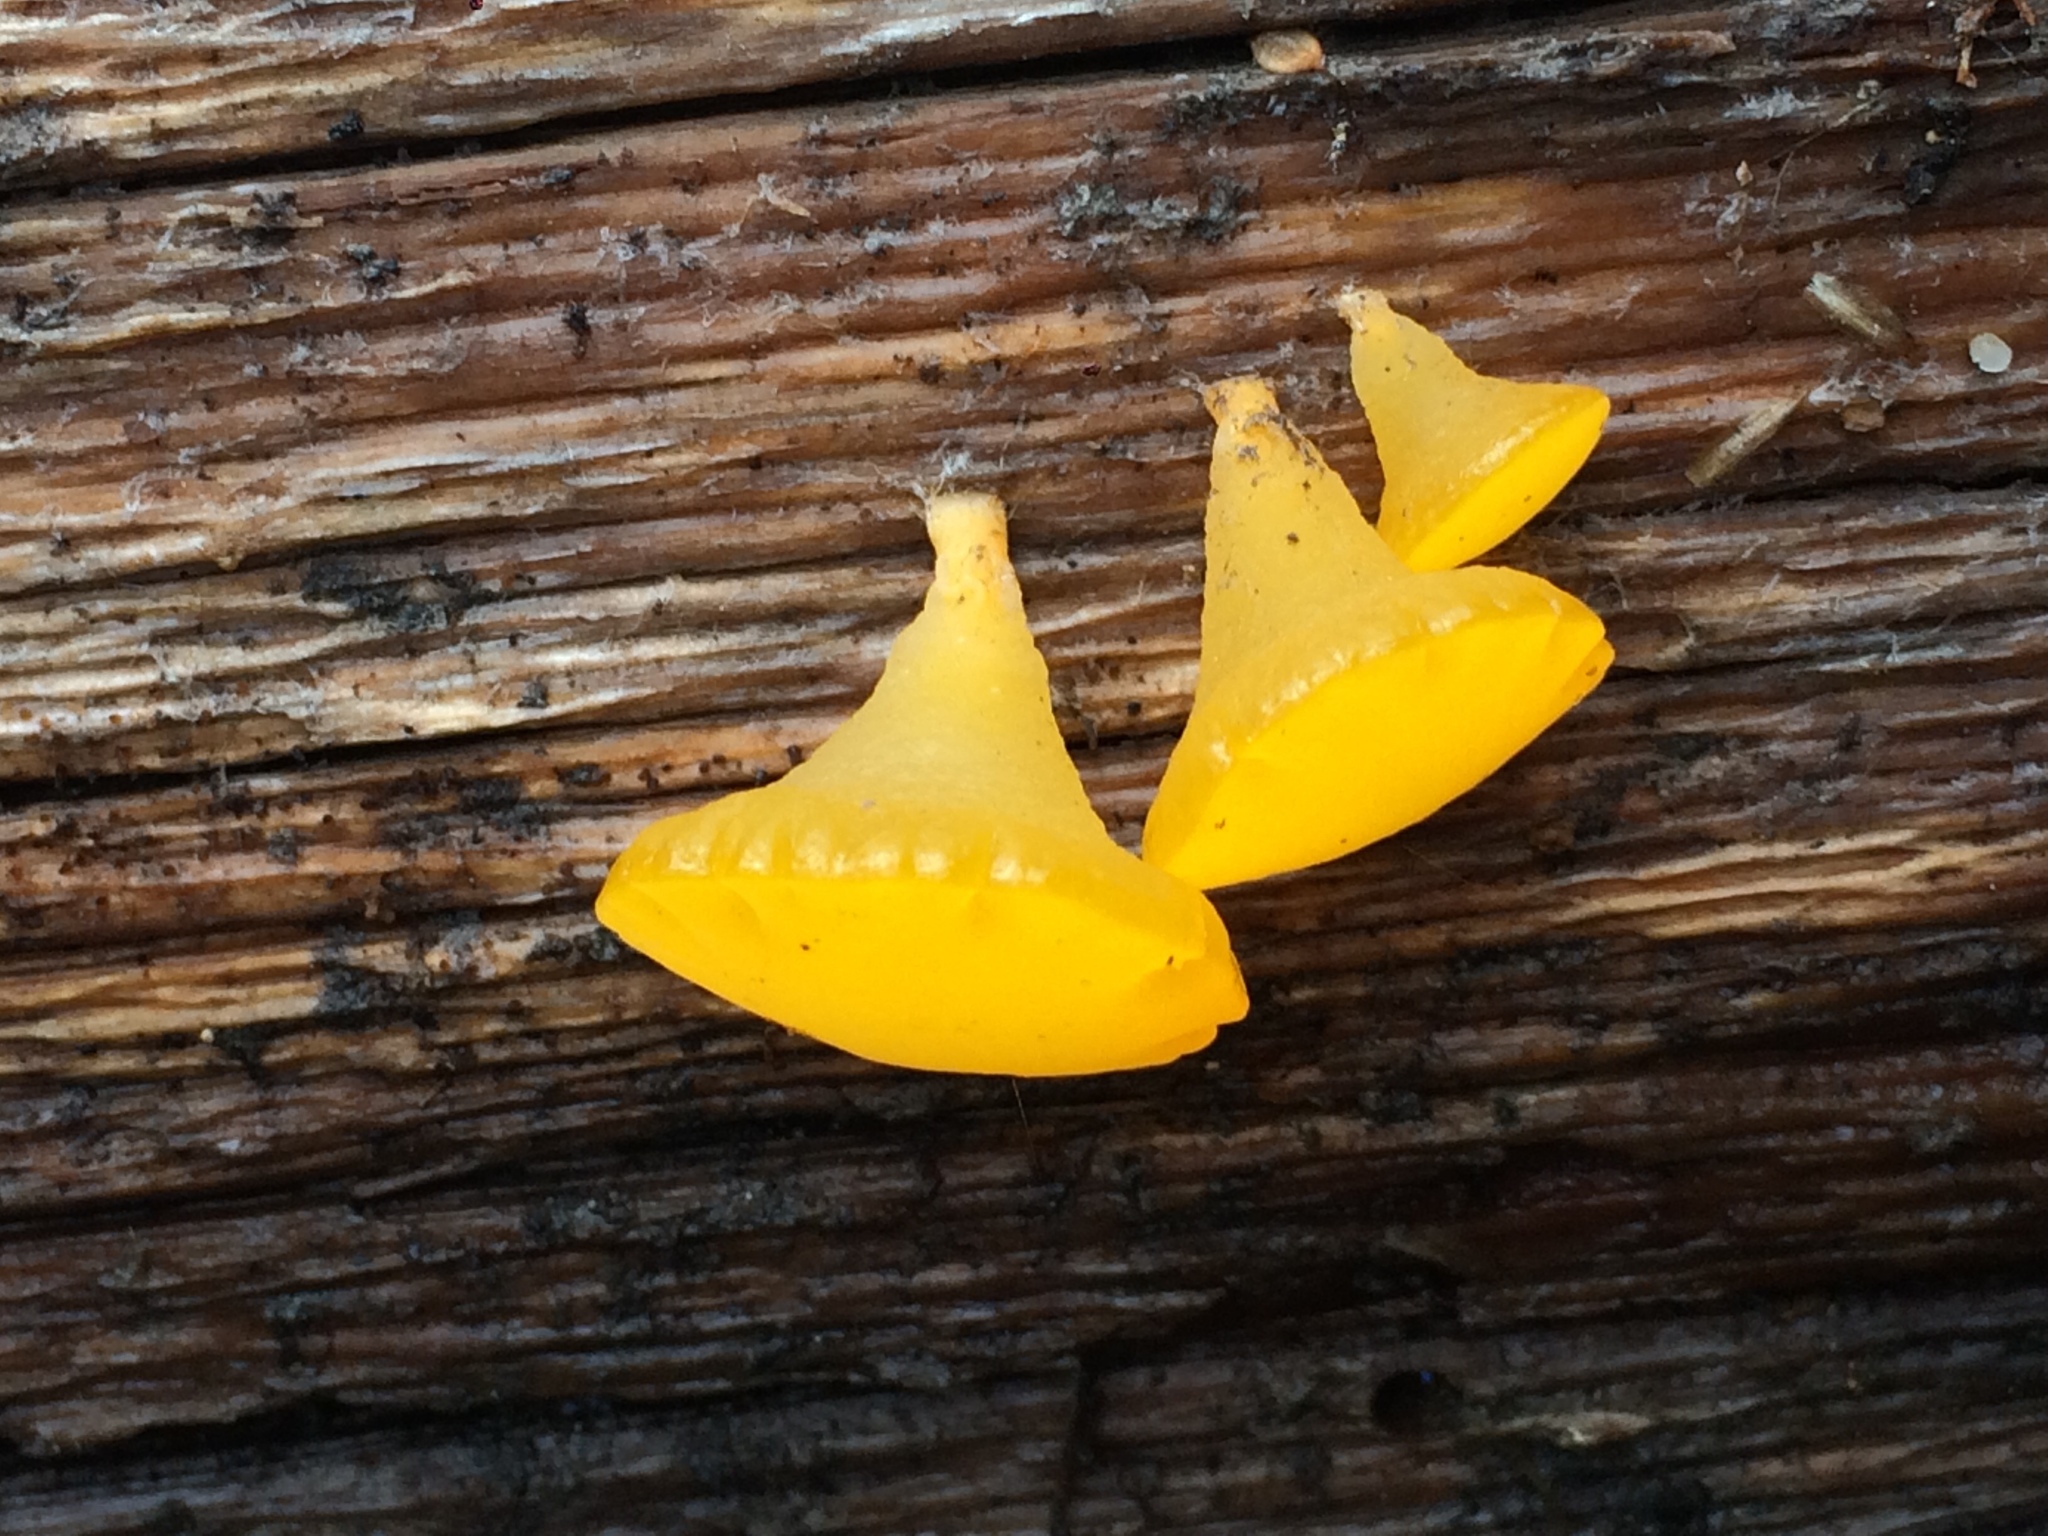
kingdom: Fungi
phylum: Basidiomycota
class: Dacrymycetes
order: Dacrymycetales
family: Dacrymycetaceae
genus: Guepiniopsis
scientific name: Guepiniopsis alpina
